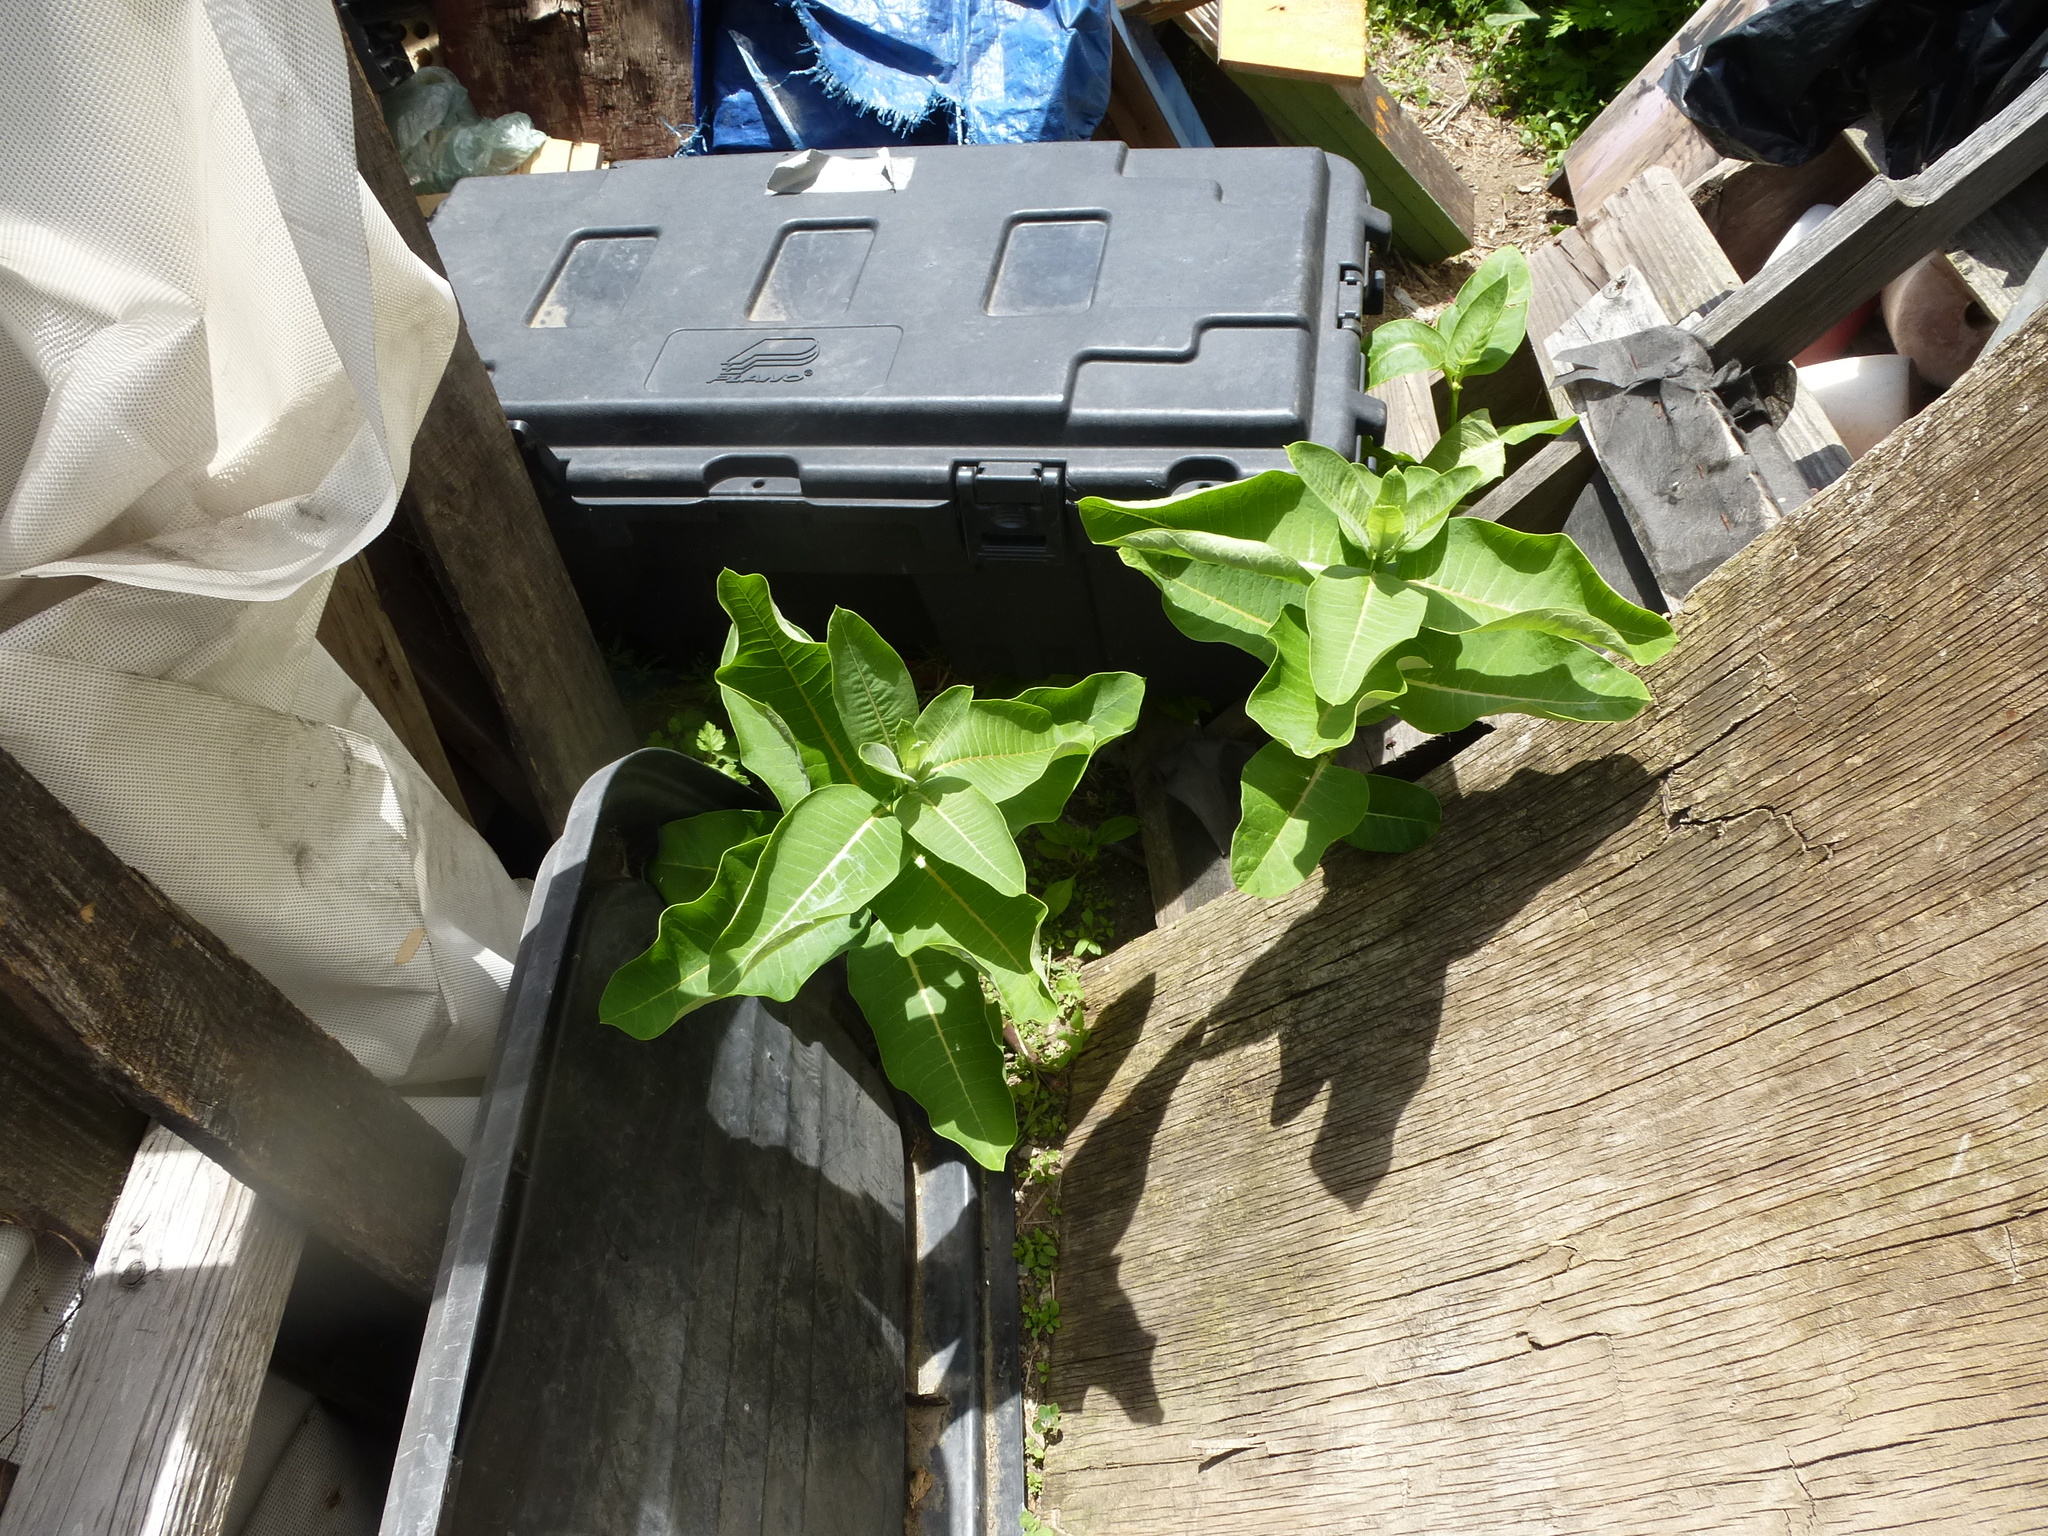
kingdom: Plantae
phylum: Tracheophyta
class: Magnoliopsida
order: Gentianales
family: Apocynaceae
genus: Asclepias
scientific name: Asclepias syriaca
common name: Common milkweed
